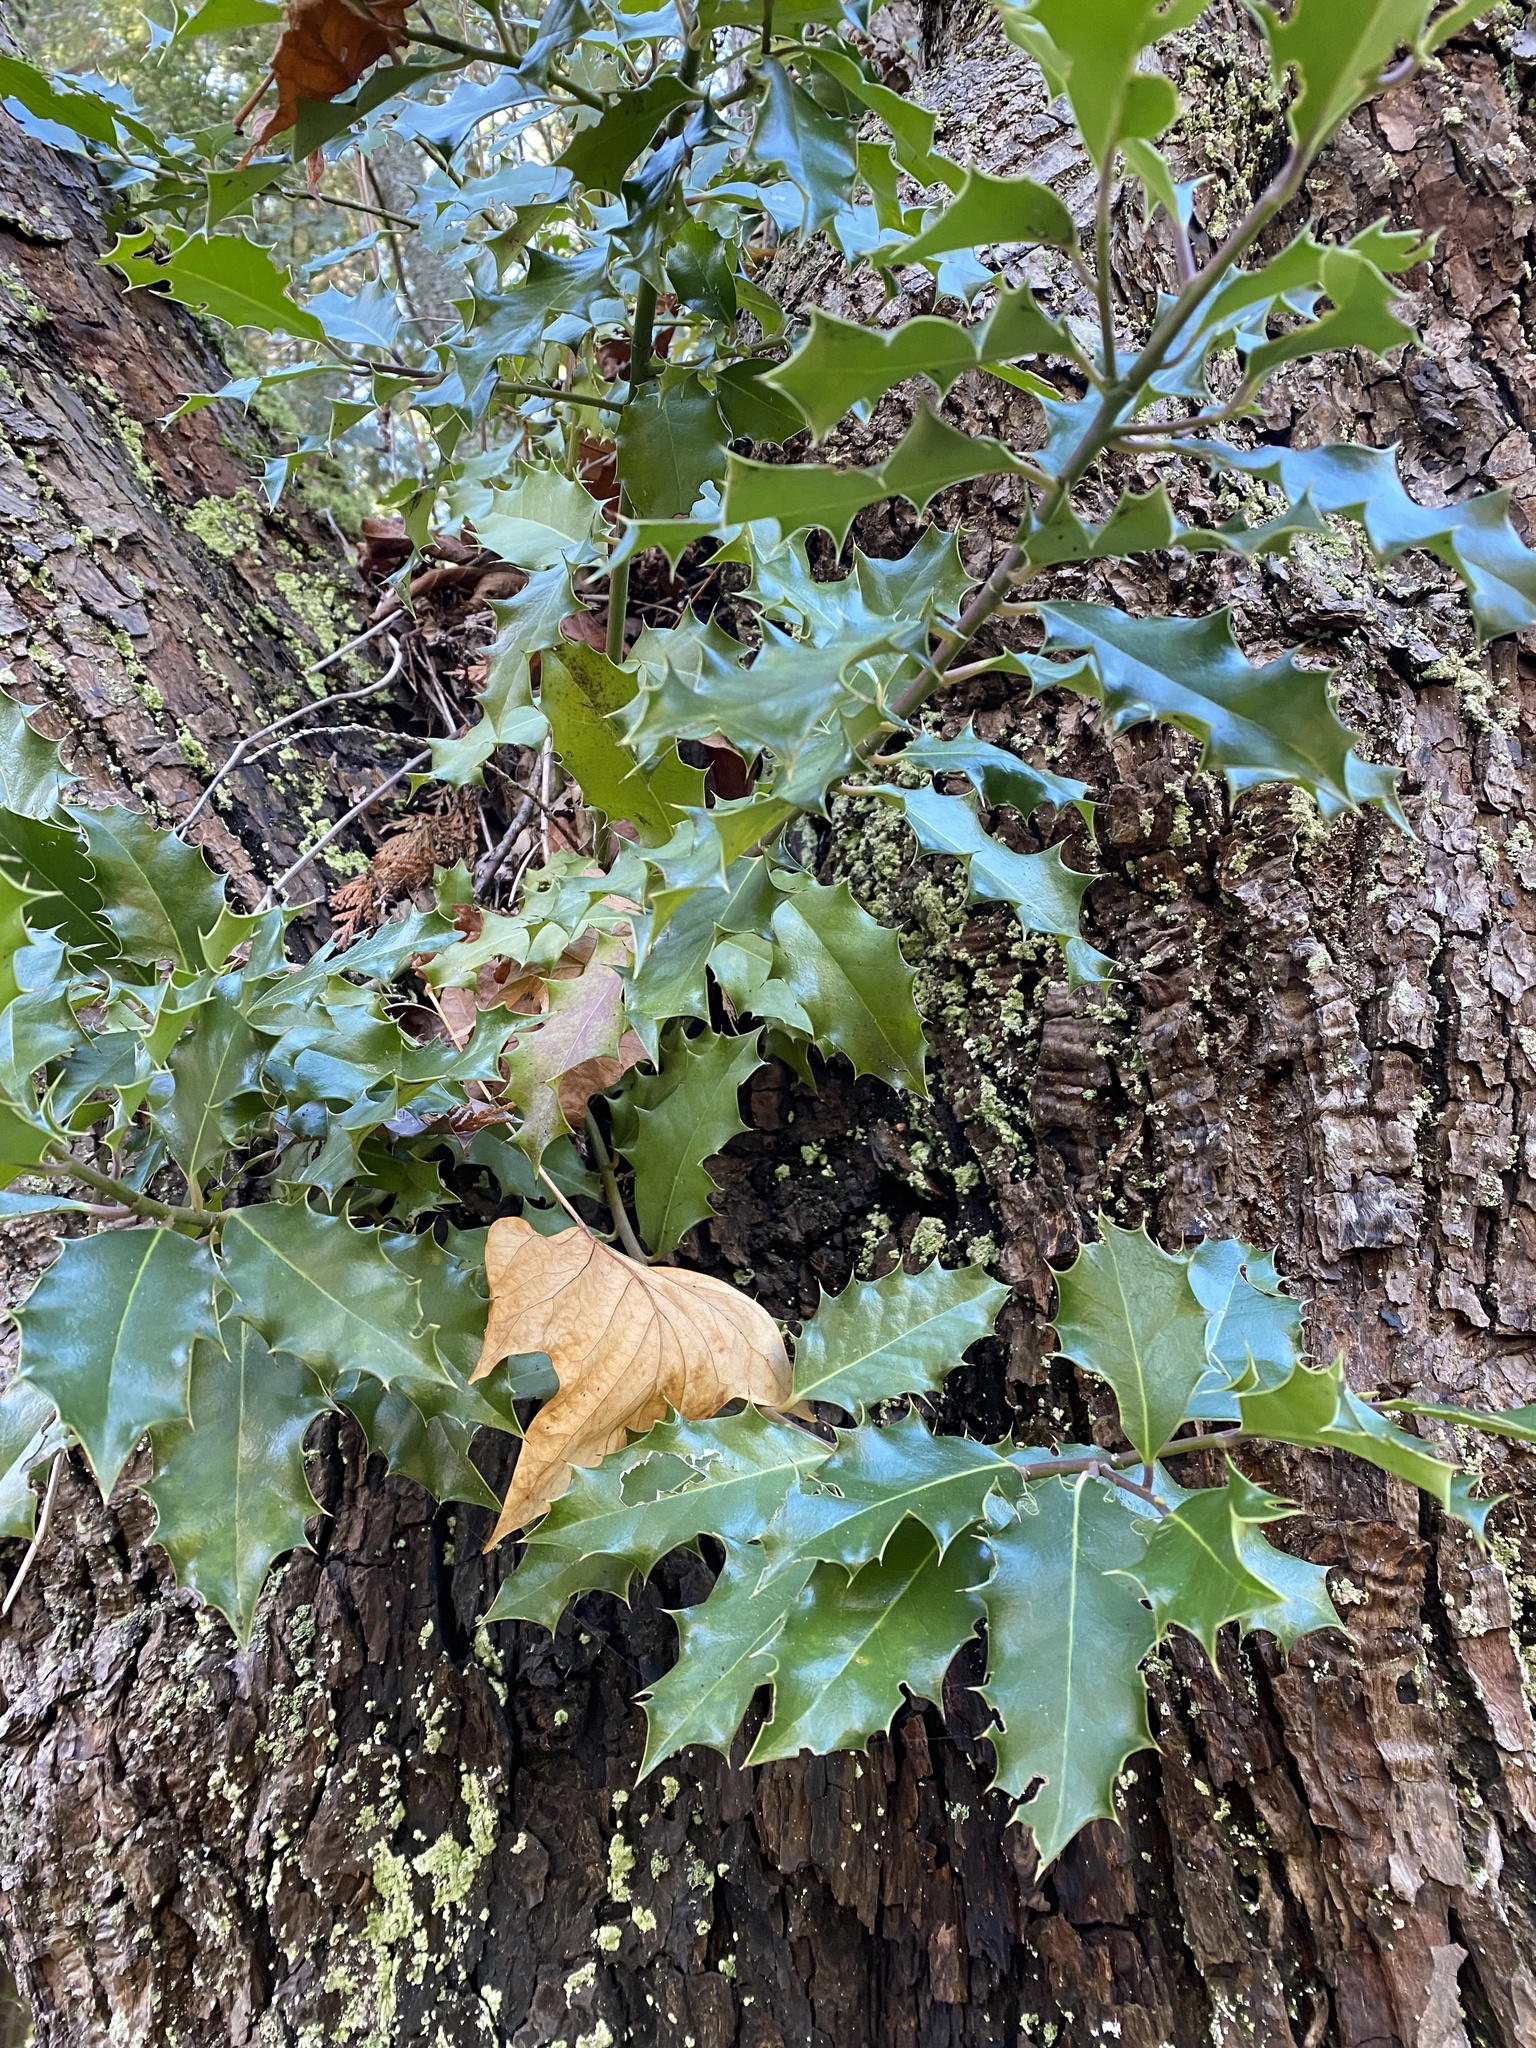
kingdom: Plantae
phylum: Tracheophyta
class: Magnoliopsida
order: Aquifoliales
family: Aquifoliaceae
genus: Ilex
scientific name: Ilex aquifolium
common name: English holly
